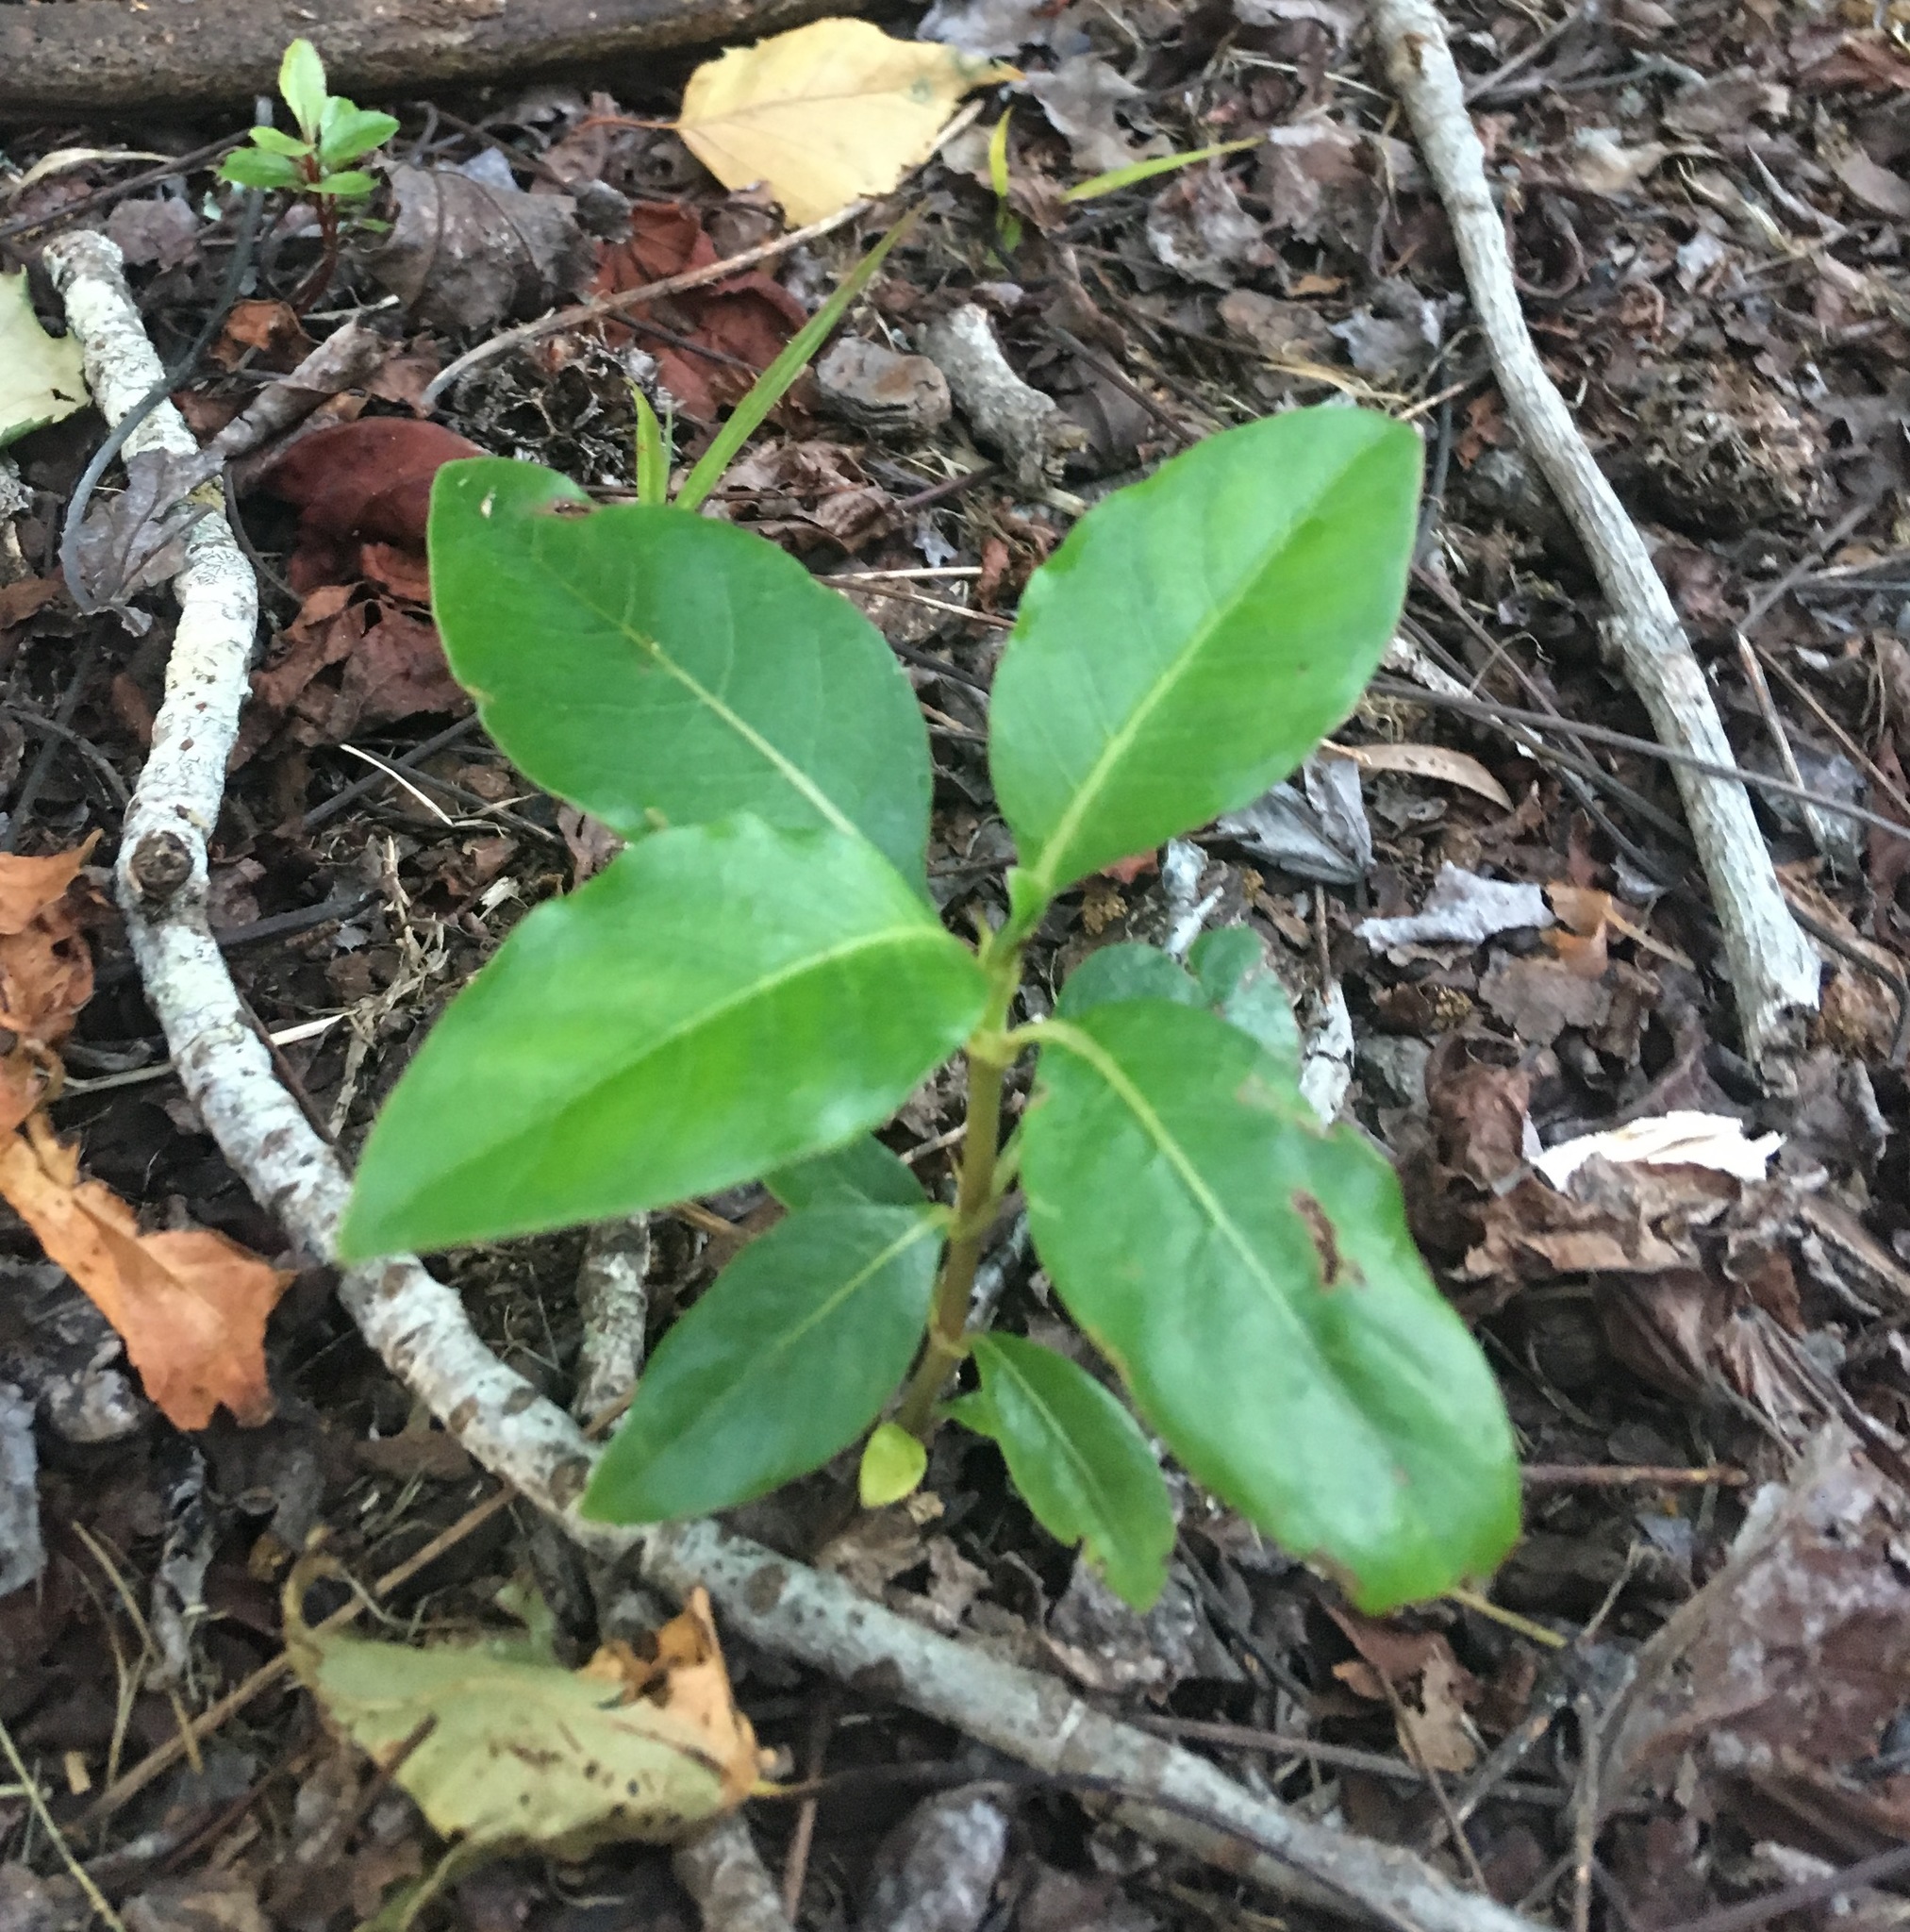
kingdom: Plantae
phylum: Tracheophyta
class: Magnoliopsida
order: Gentianales
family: Rubiaceae
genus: Coprosma
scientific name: Coprosma robusta
